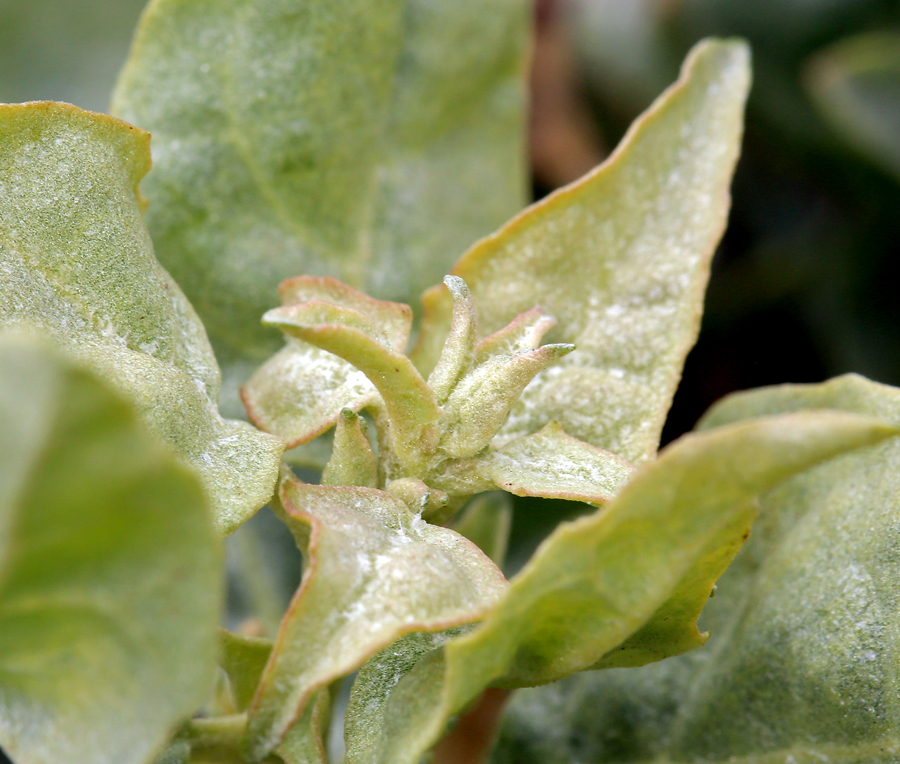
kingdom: Plantae
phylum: Tracheophyta
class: Magnoliopsida
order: Caryophyllales
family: Amaranthaceae
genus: Atriplex
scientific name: Atriplex lentiformis
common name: Big saltbush
